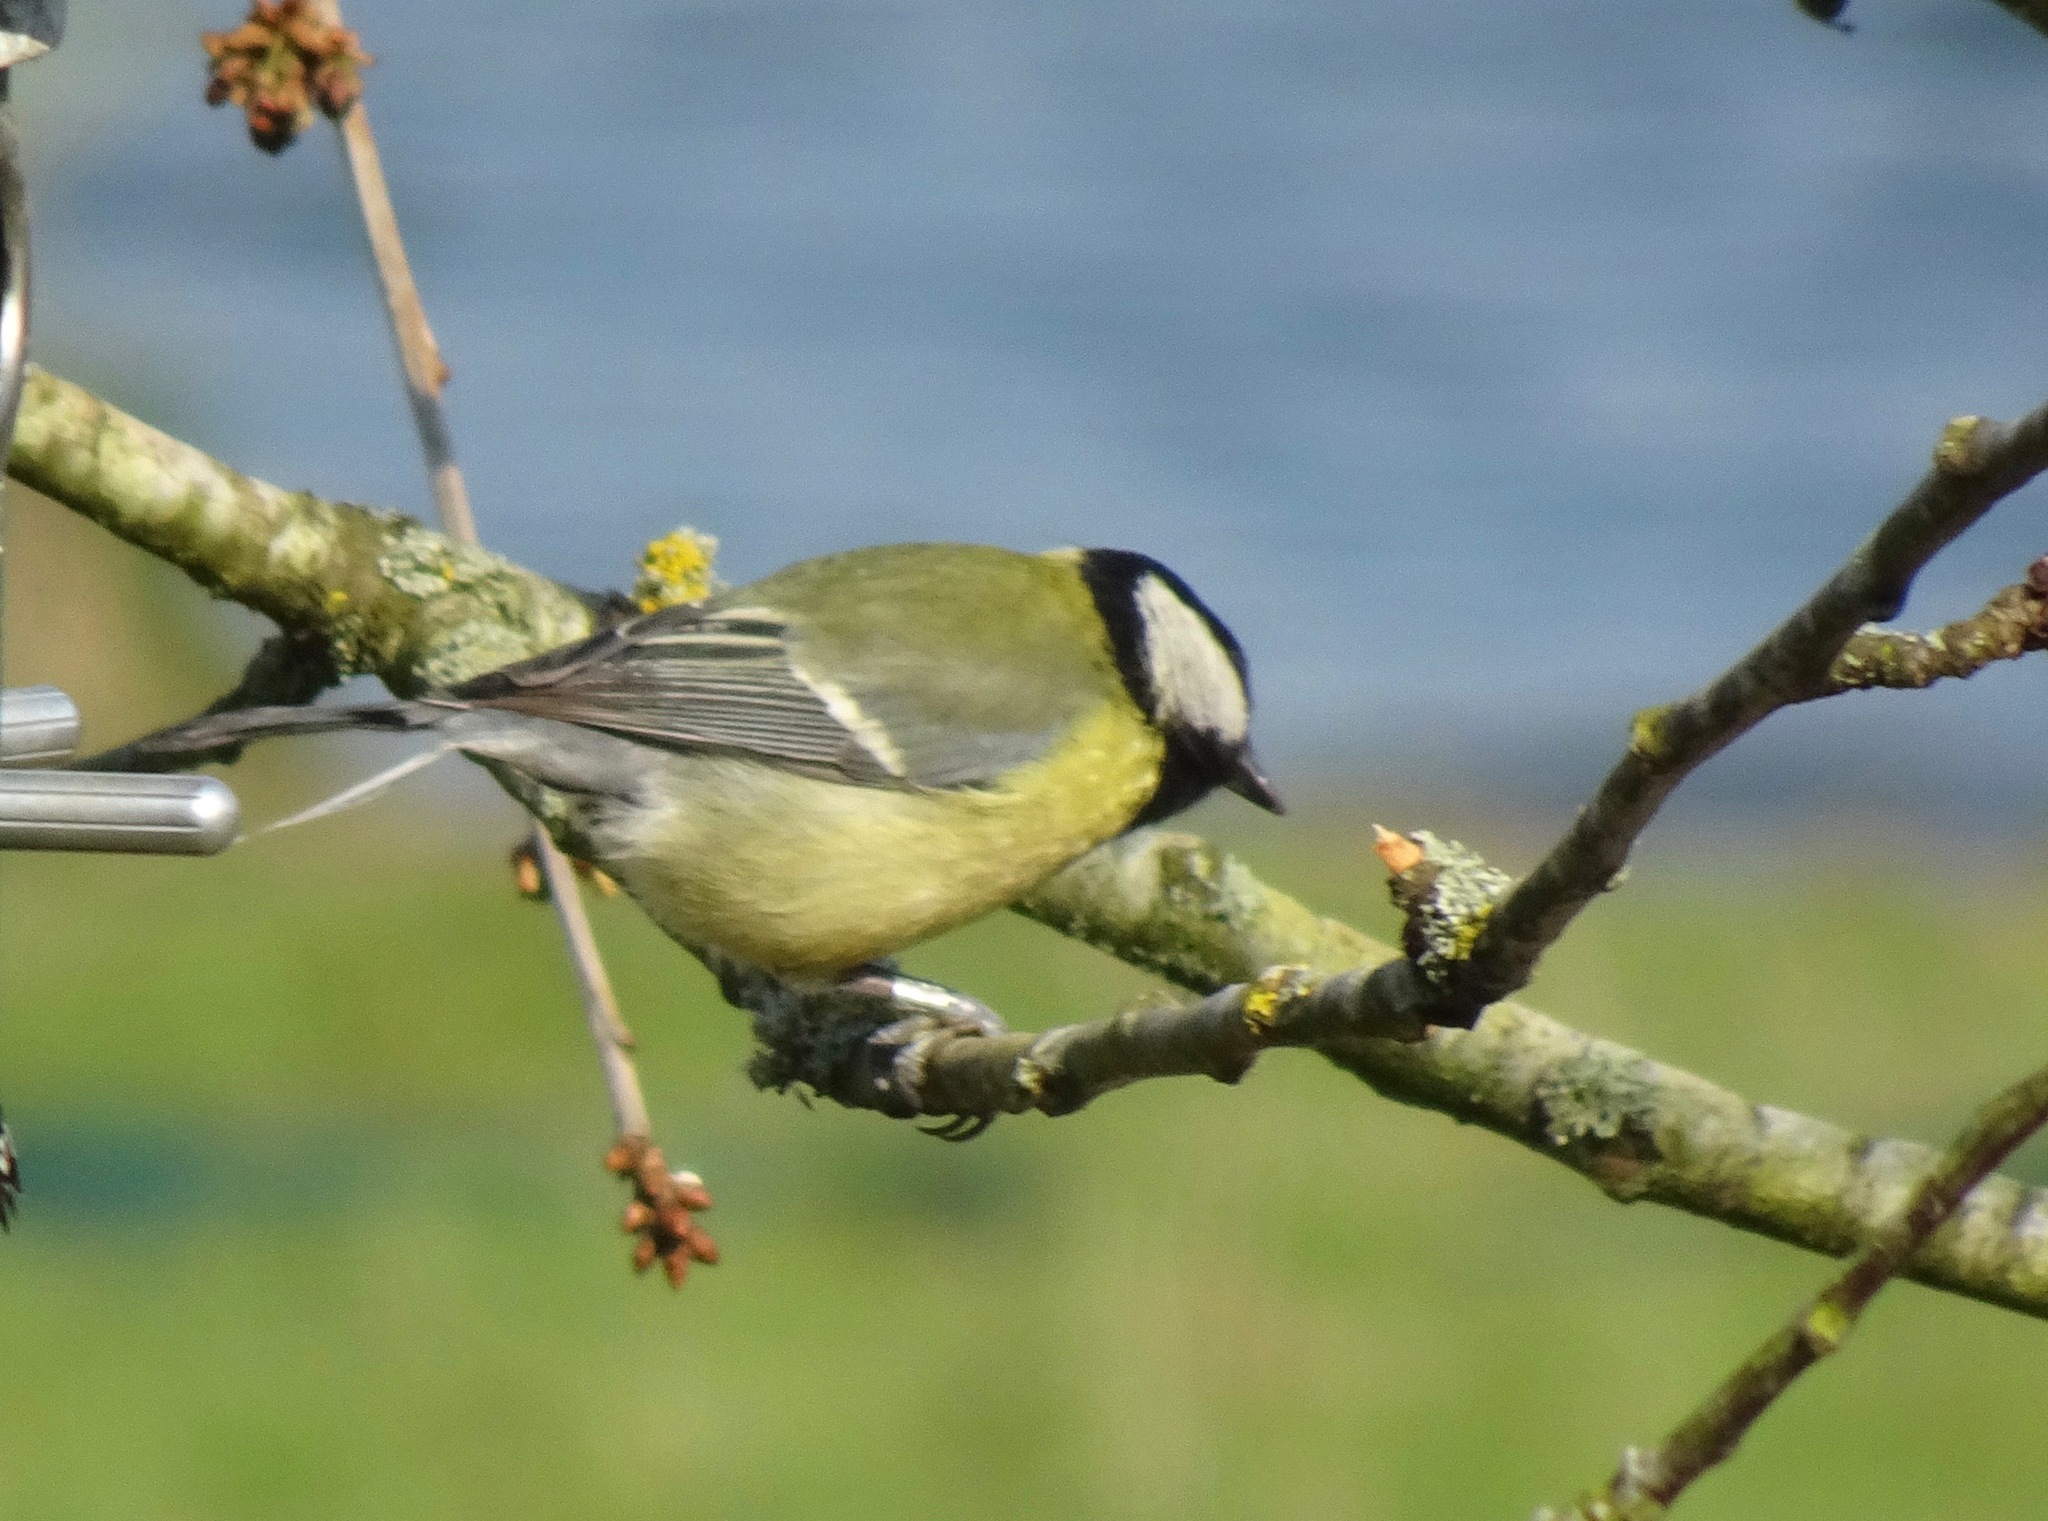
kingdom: Animalia
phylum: Chordata
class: Aves
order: Passeriformes
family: Paridae
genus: Parus
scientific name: Parus major
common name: Great tit
